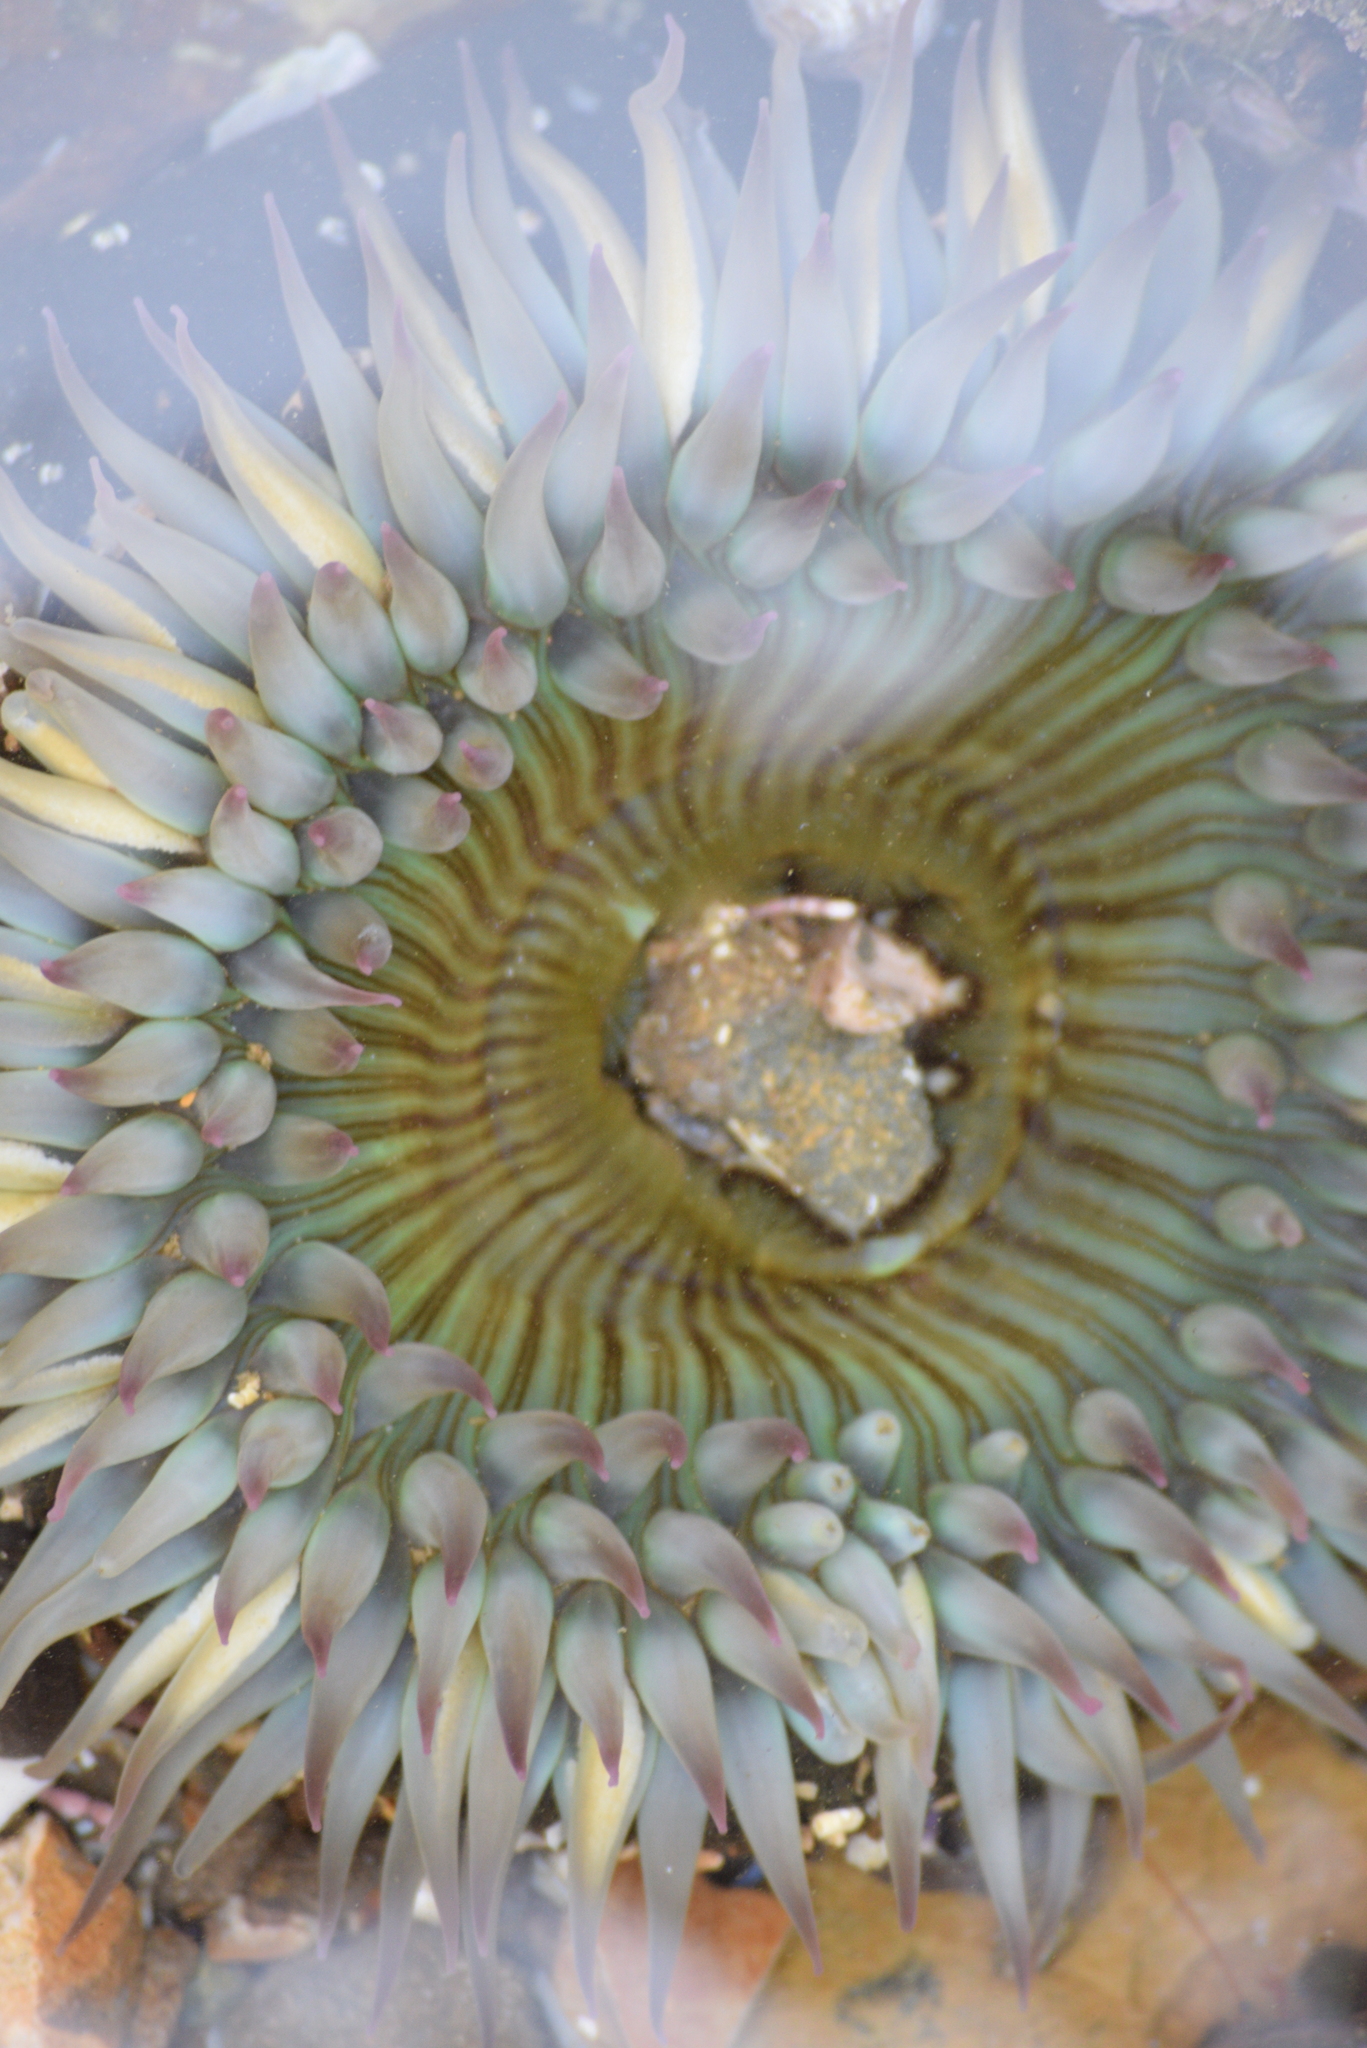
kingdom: Animalia
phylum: Cnidaria
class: Anthozoa
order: Actiniaria
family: Actiniidae
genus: Anthopleura
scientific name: Anthopleura sola
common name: Sun anemone
